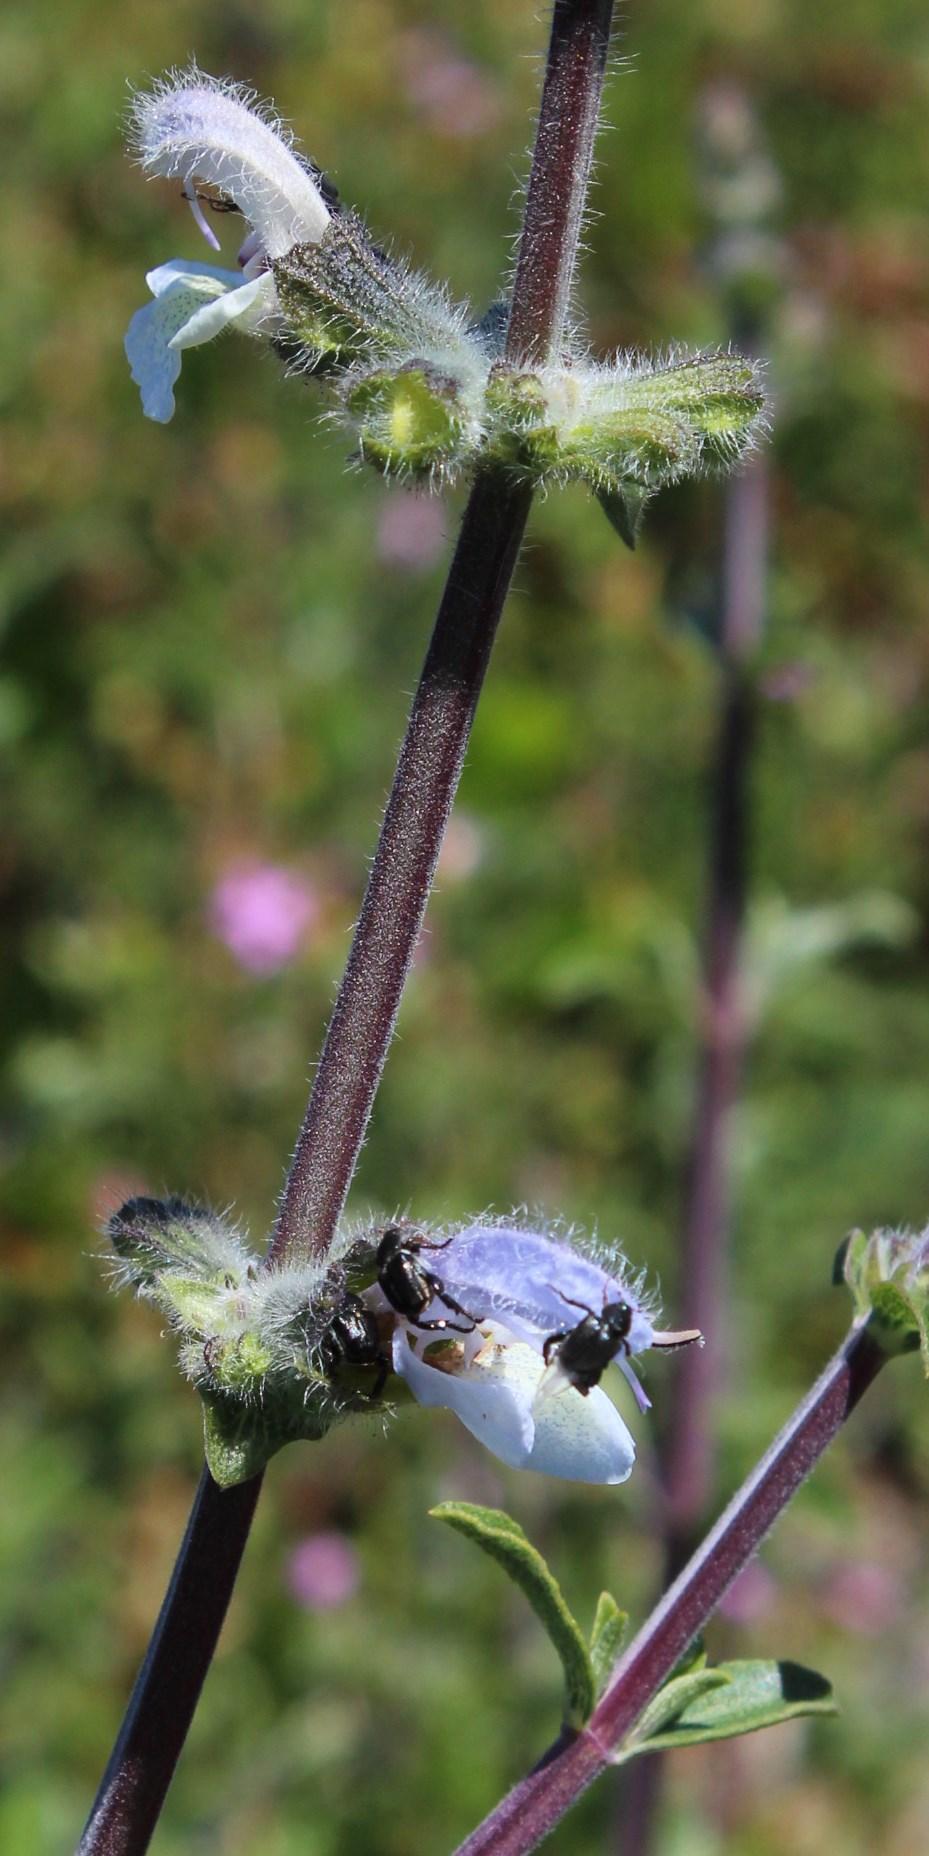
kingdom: Plantae
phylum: Tracheophyta
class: Magnoliopsida
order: Lamiales
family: Lamiaceae
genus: Salvia
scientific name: Salvia chamelaeagnea
